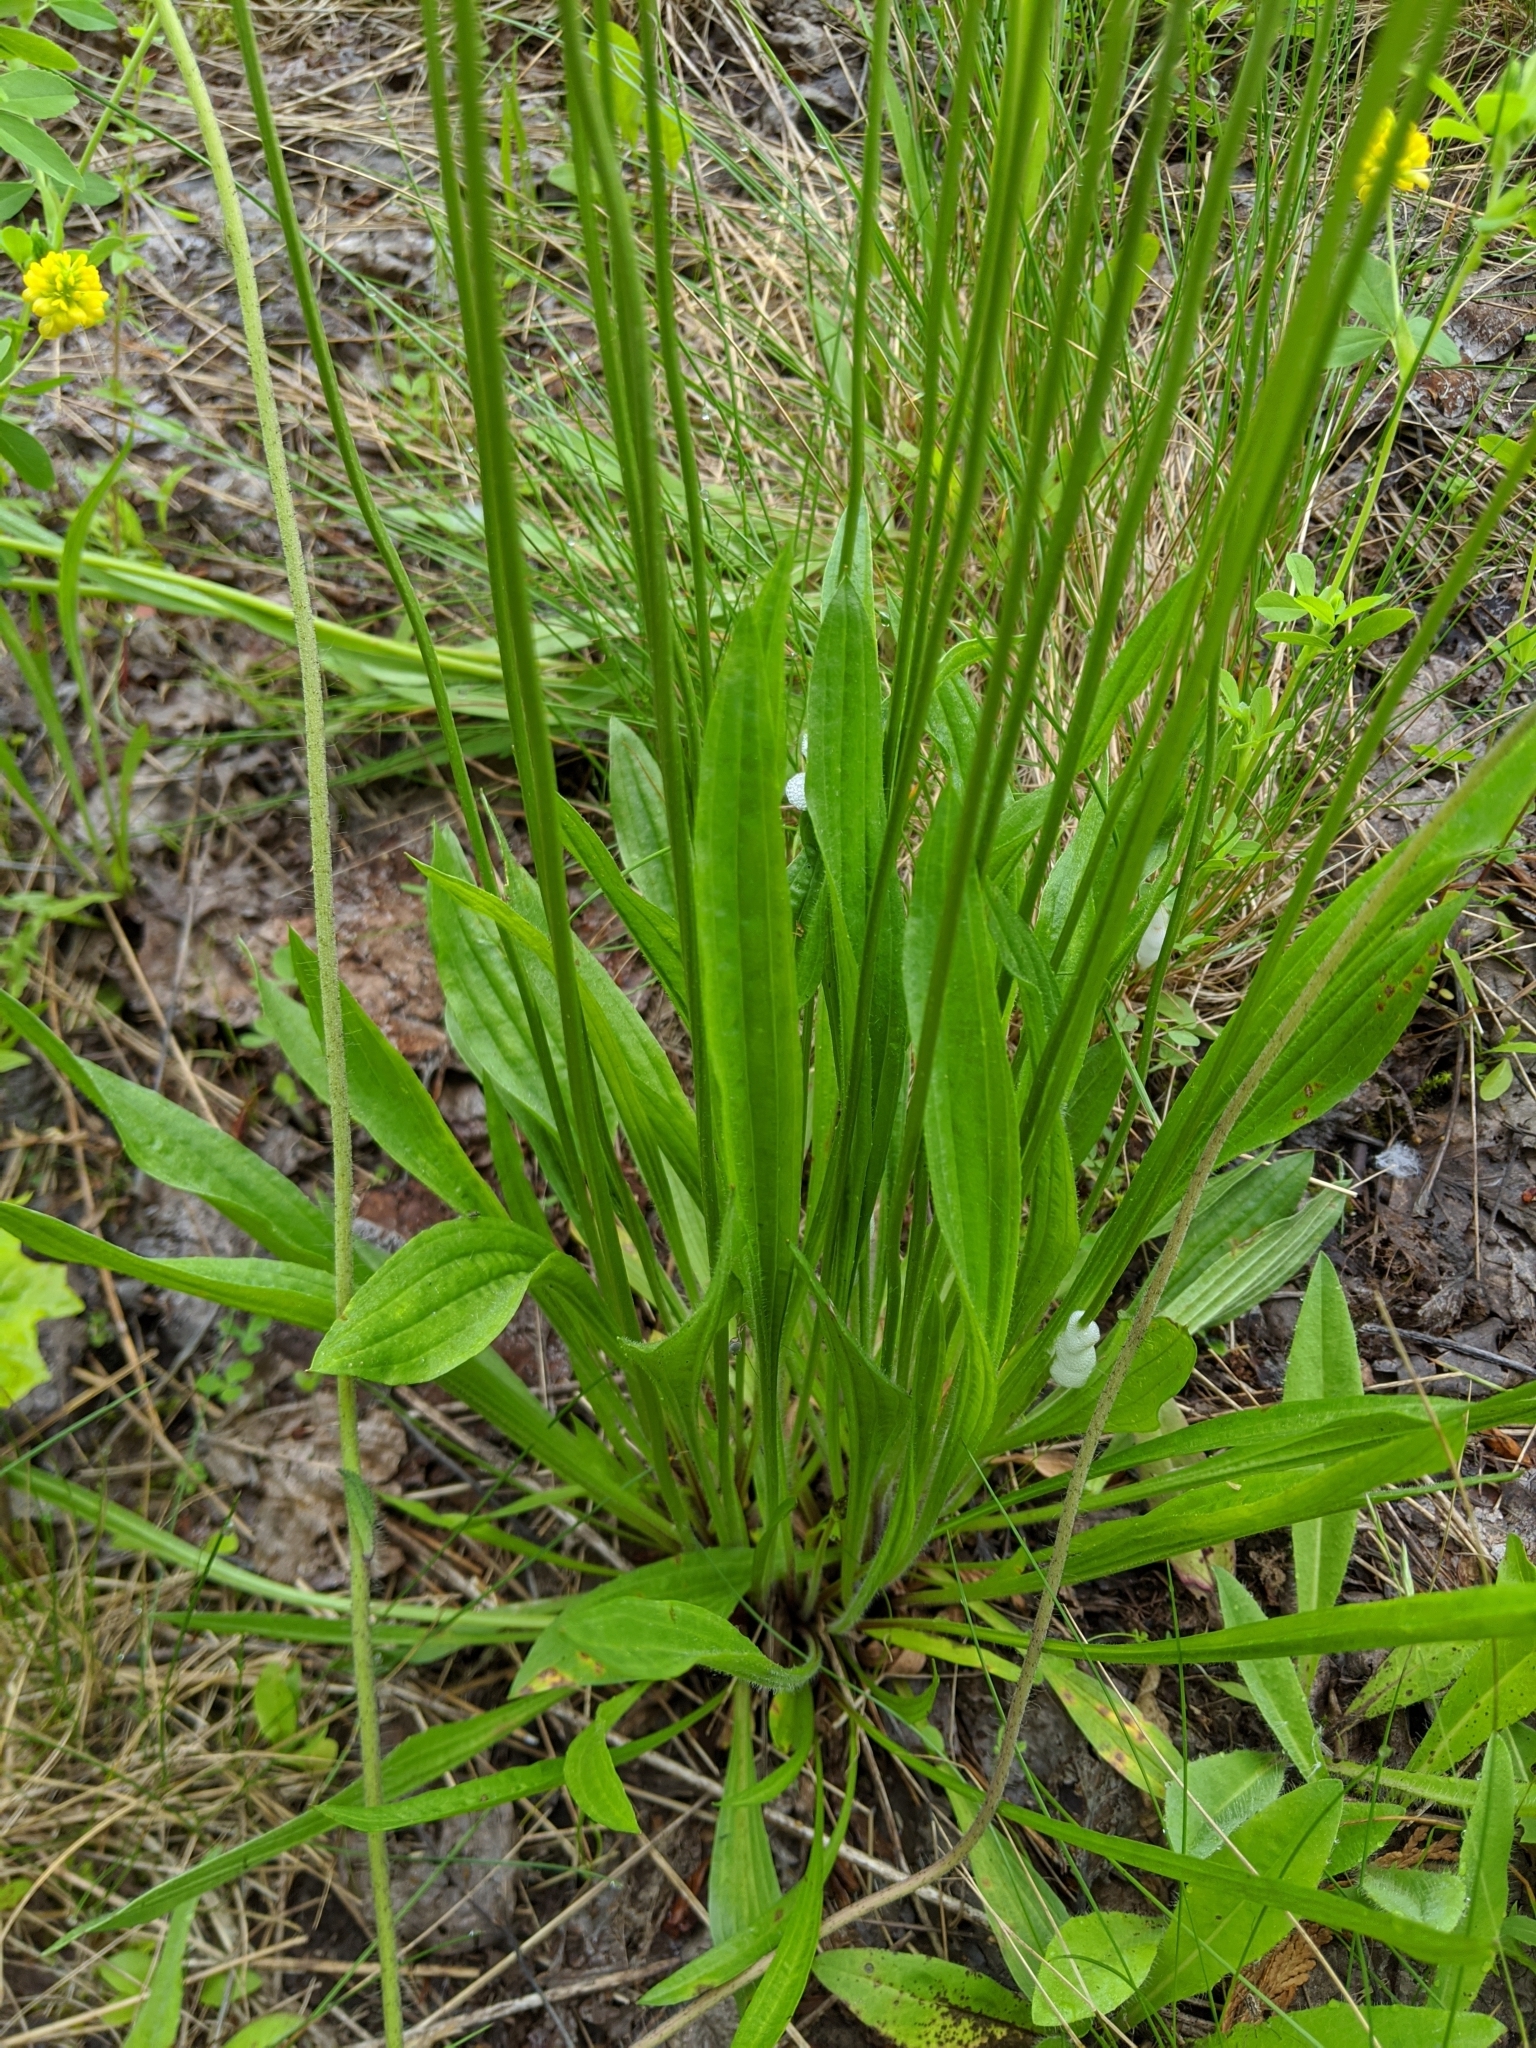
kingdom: Plantae
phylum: Tracheophyta
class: Magnoliopsida
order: Lamiales
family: Plantaginaceae
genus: Plantago
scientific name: Plantago lanceolata
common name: Ribwort plantain
